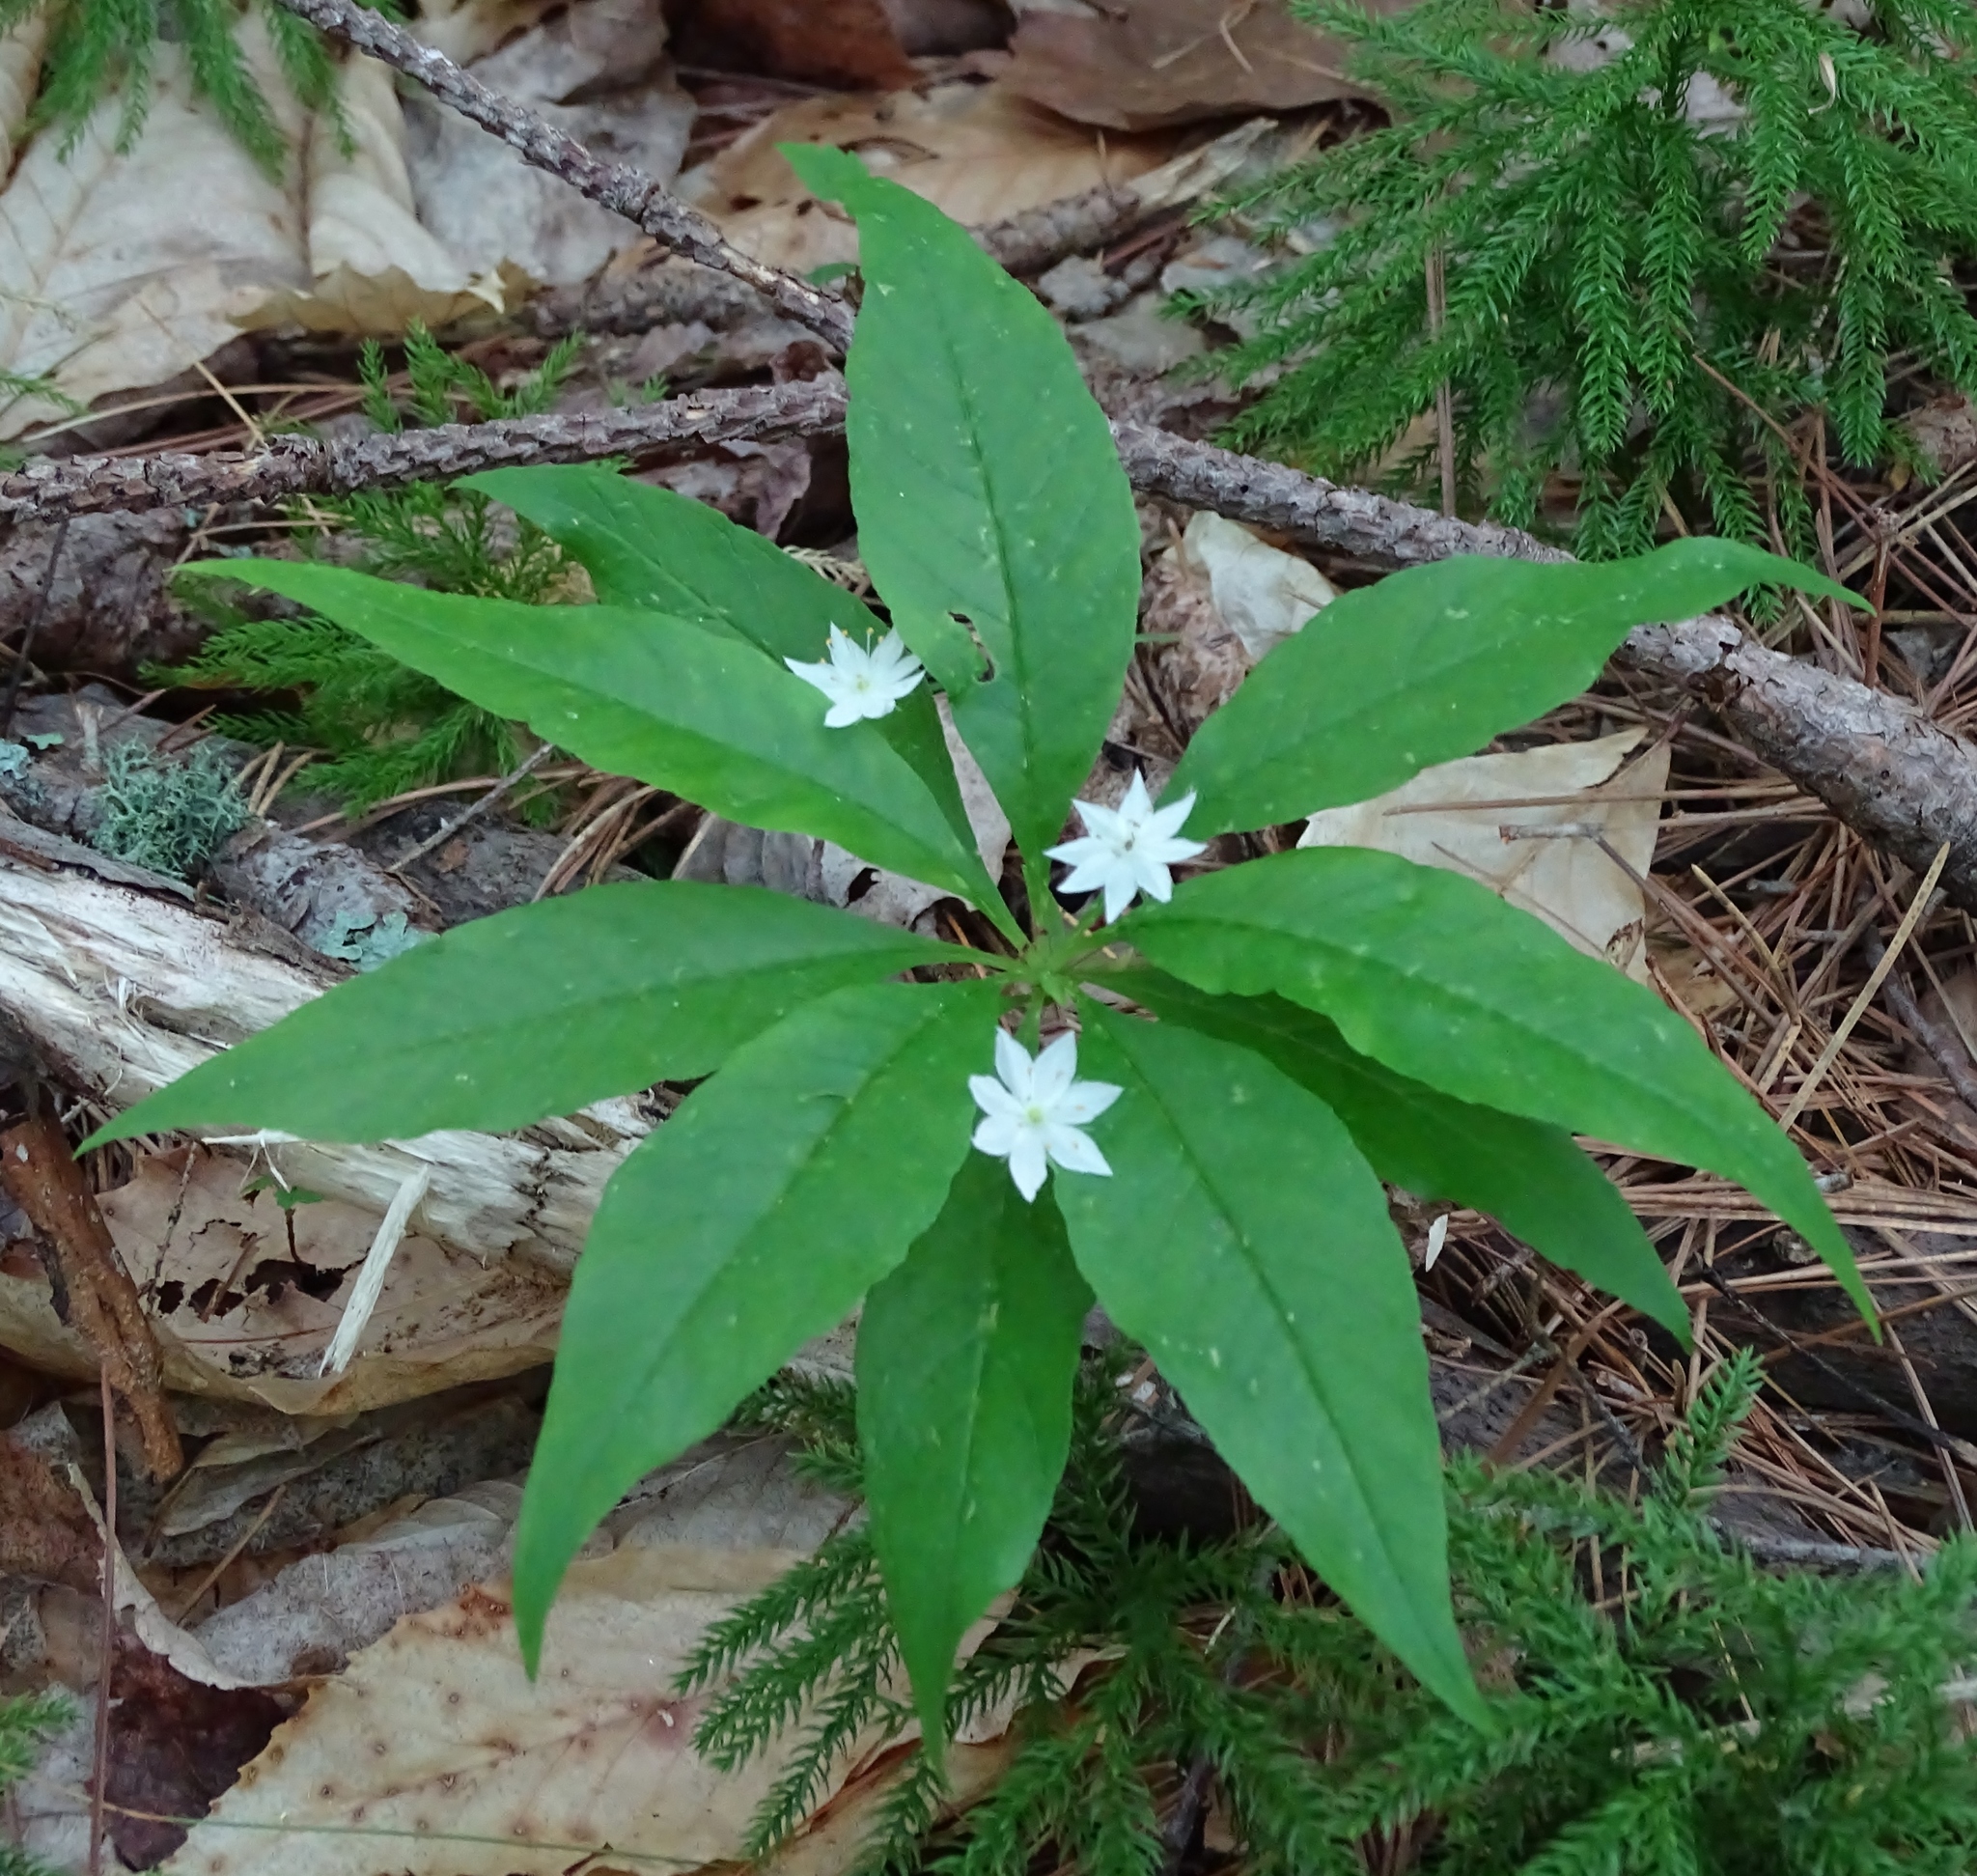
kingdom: Plantae
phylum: Tracheophyta
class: Magnoliopsida
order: Ericales
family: Primulaceae
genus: Lysimachia
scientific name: Lysimachia borealis
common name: American starflower
